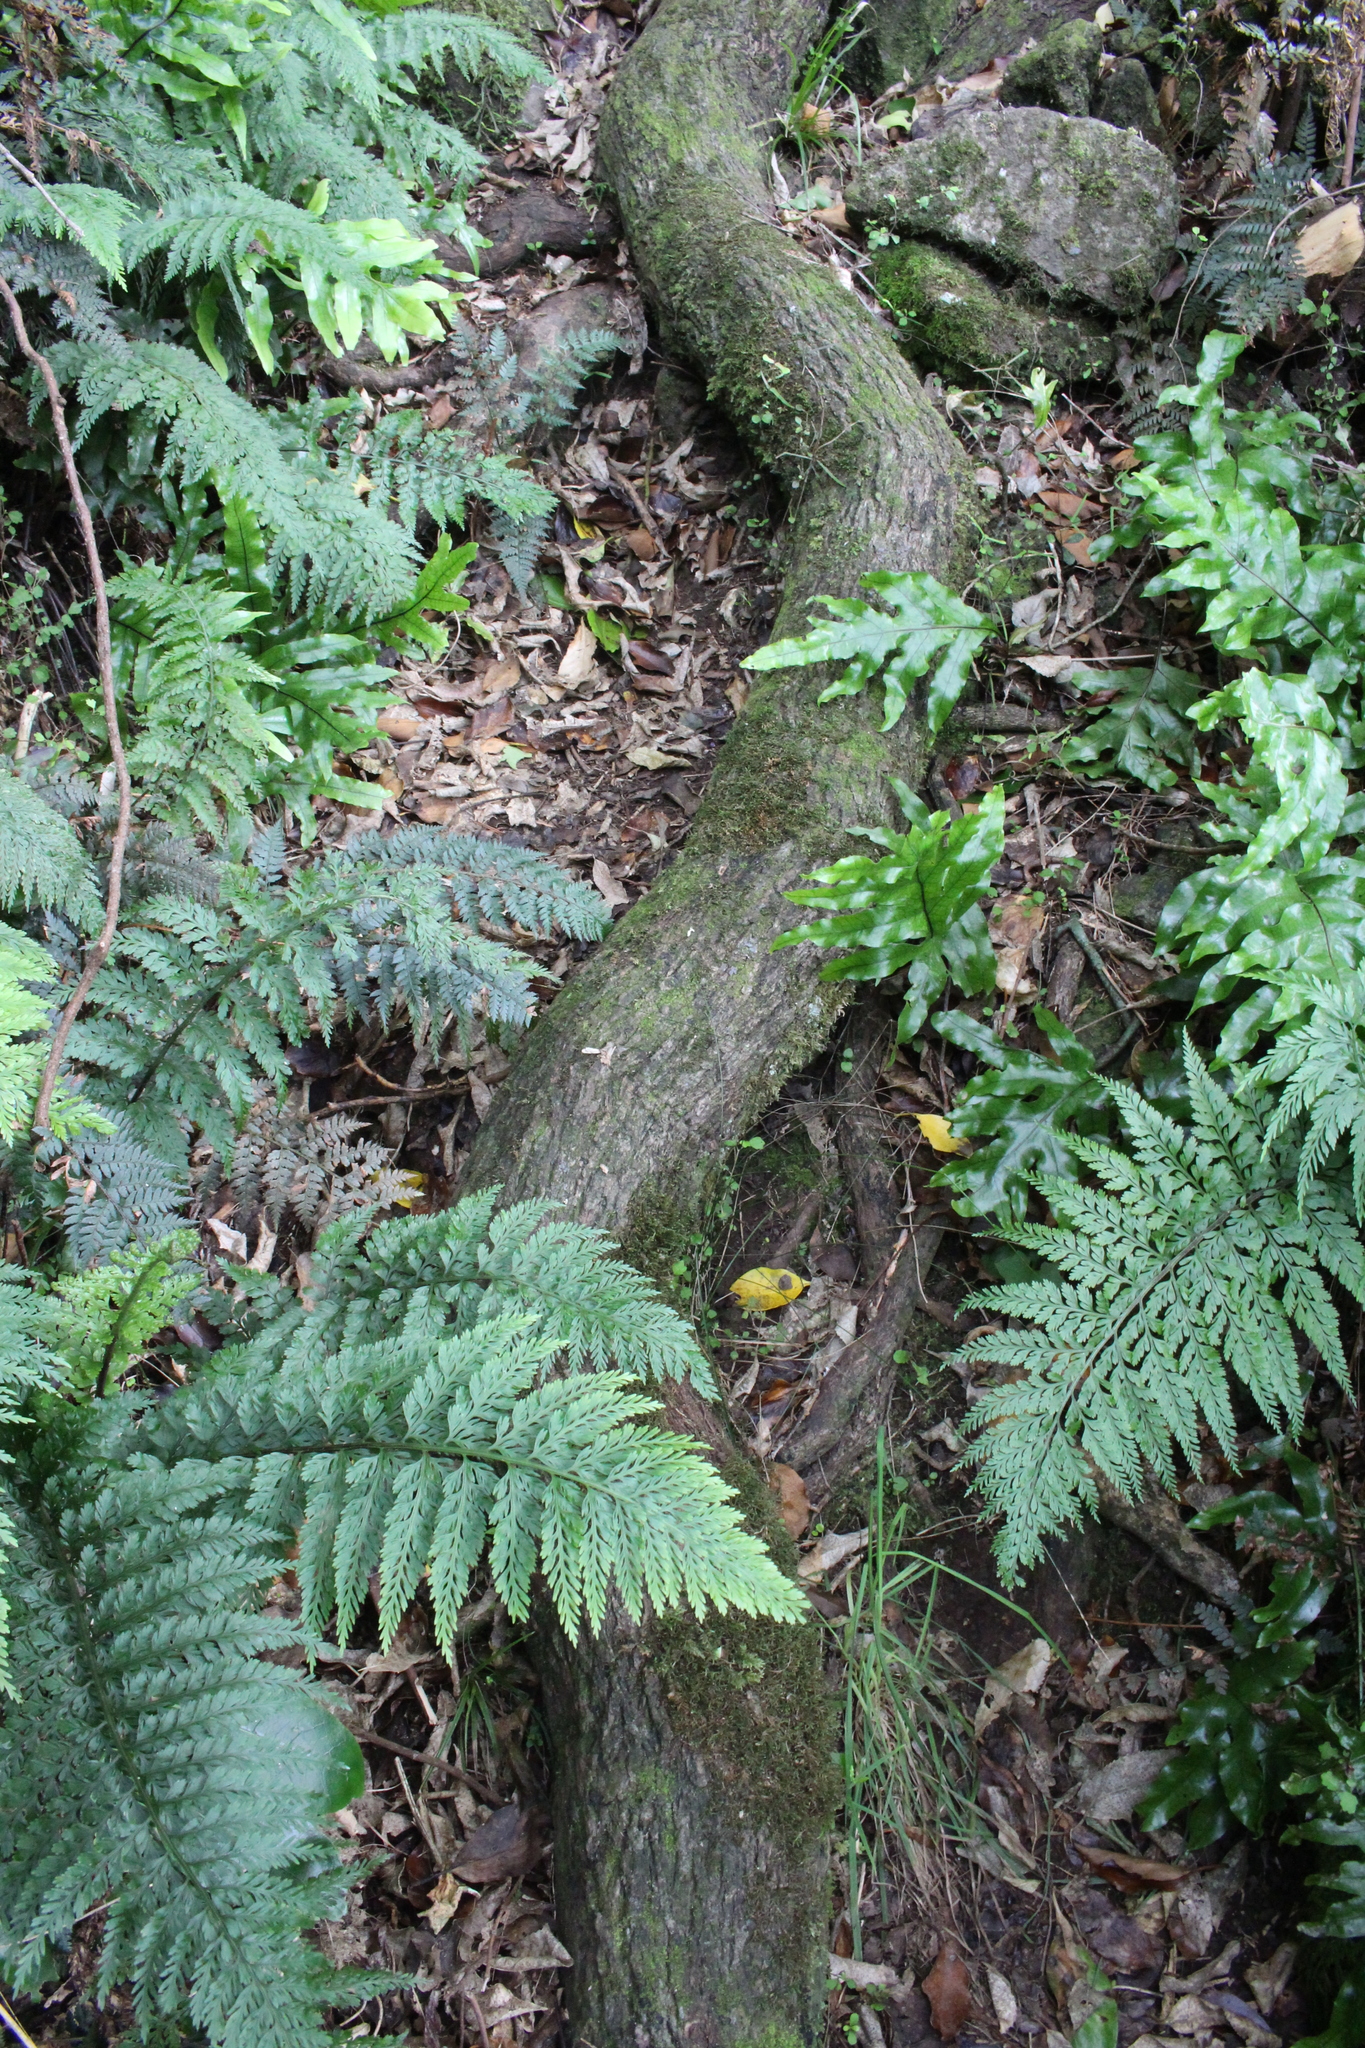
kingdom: Plantae
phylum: Tracheophyta
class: Magnoliopsida
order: Apiales
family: Griseliniaceae
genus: Griselinia
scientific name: Griselinia littoralis
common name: New zealand broadleaf
